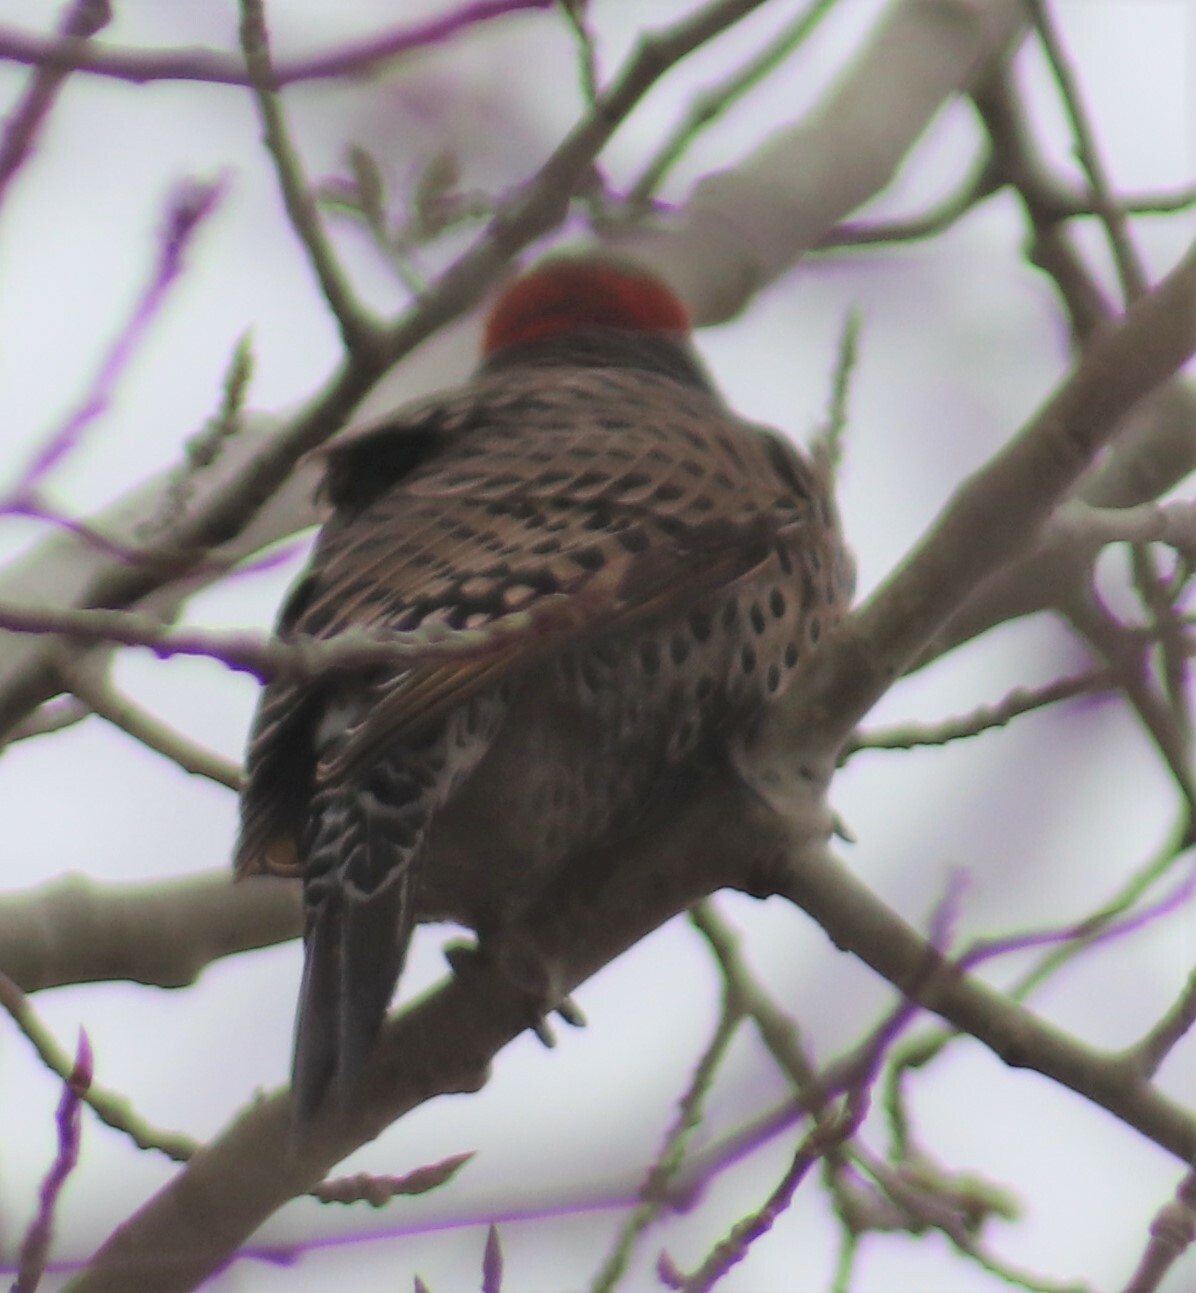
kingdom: Animalia
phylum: Chordata
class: Aves
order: Piciformes
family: Picidae
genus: Colaptes
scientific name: Colaptes auratus
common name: Northern flicker
